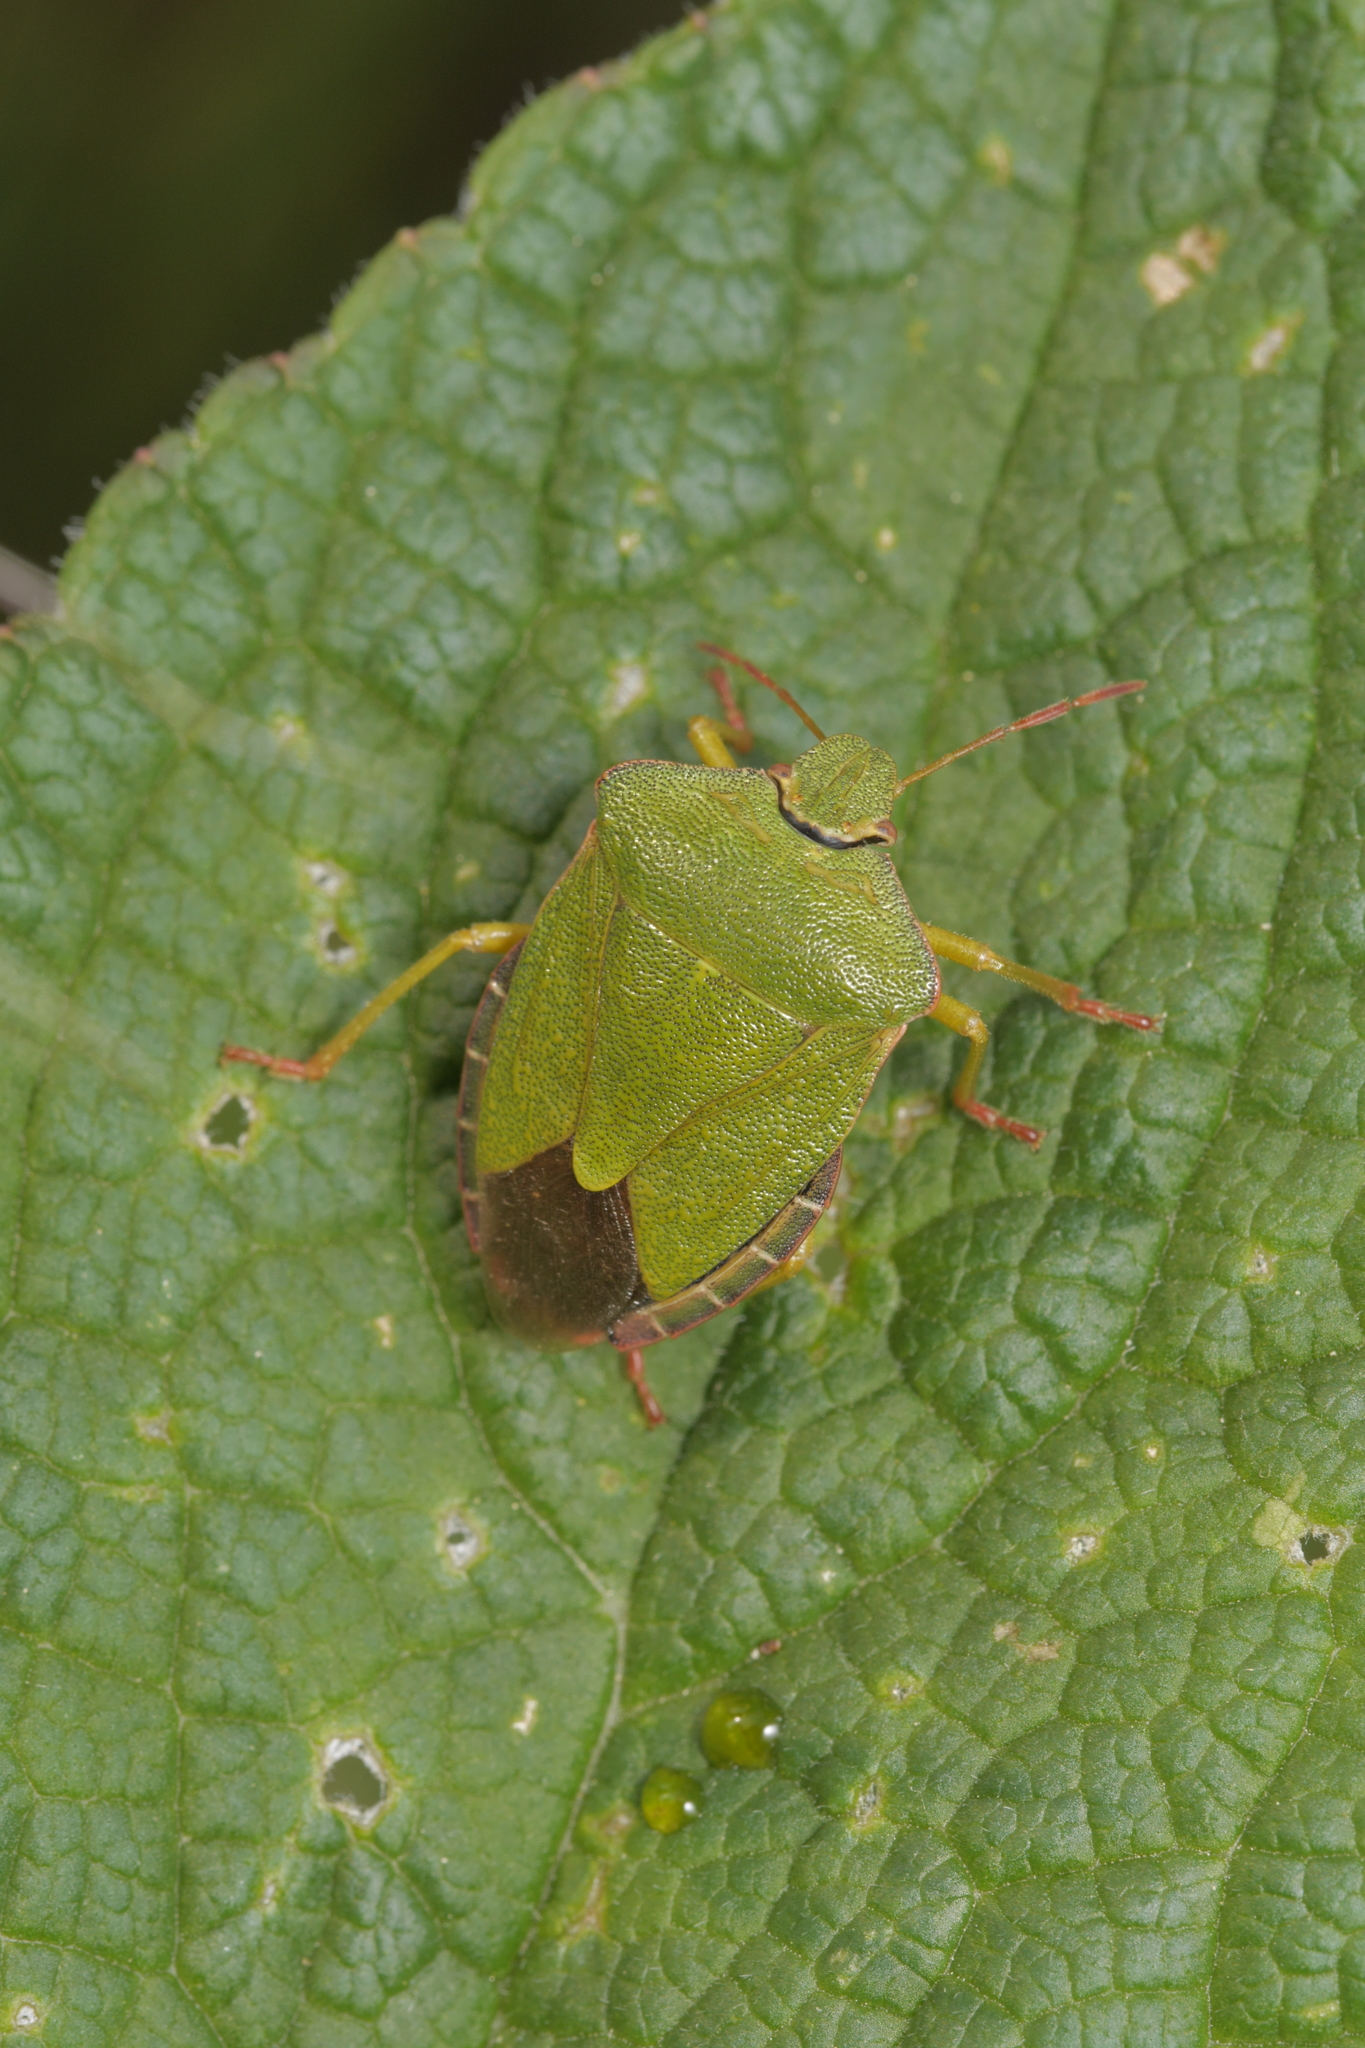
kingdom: Animalia
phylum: Arthropoda
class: Insecta
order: Hemiptera
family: Pentatomidae
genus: Palomena
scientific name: Palomena prasina
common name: Green shieldbug
